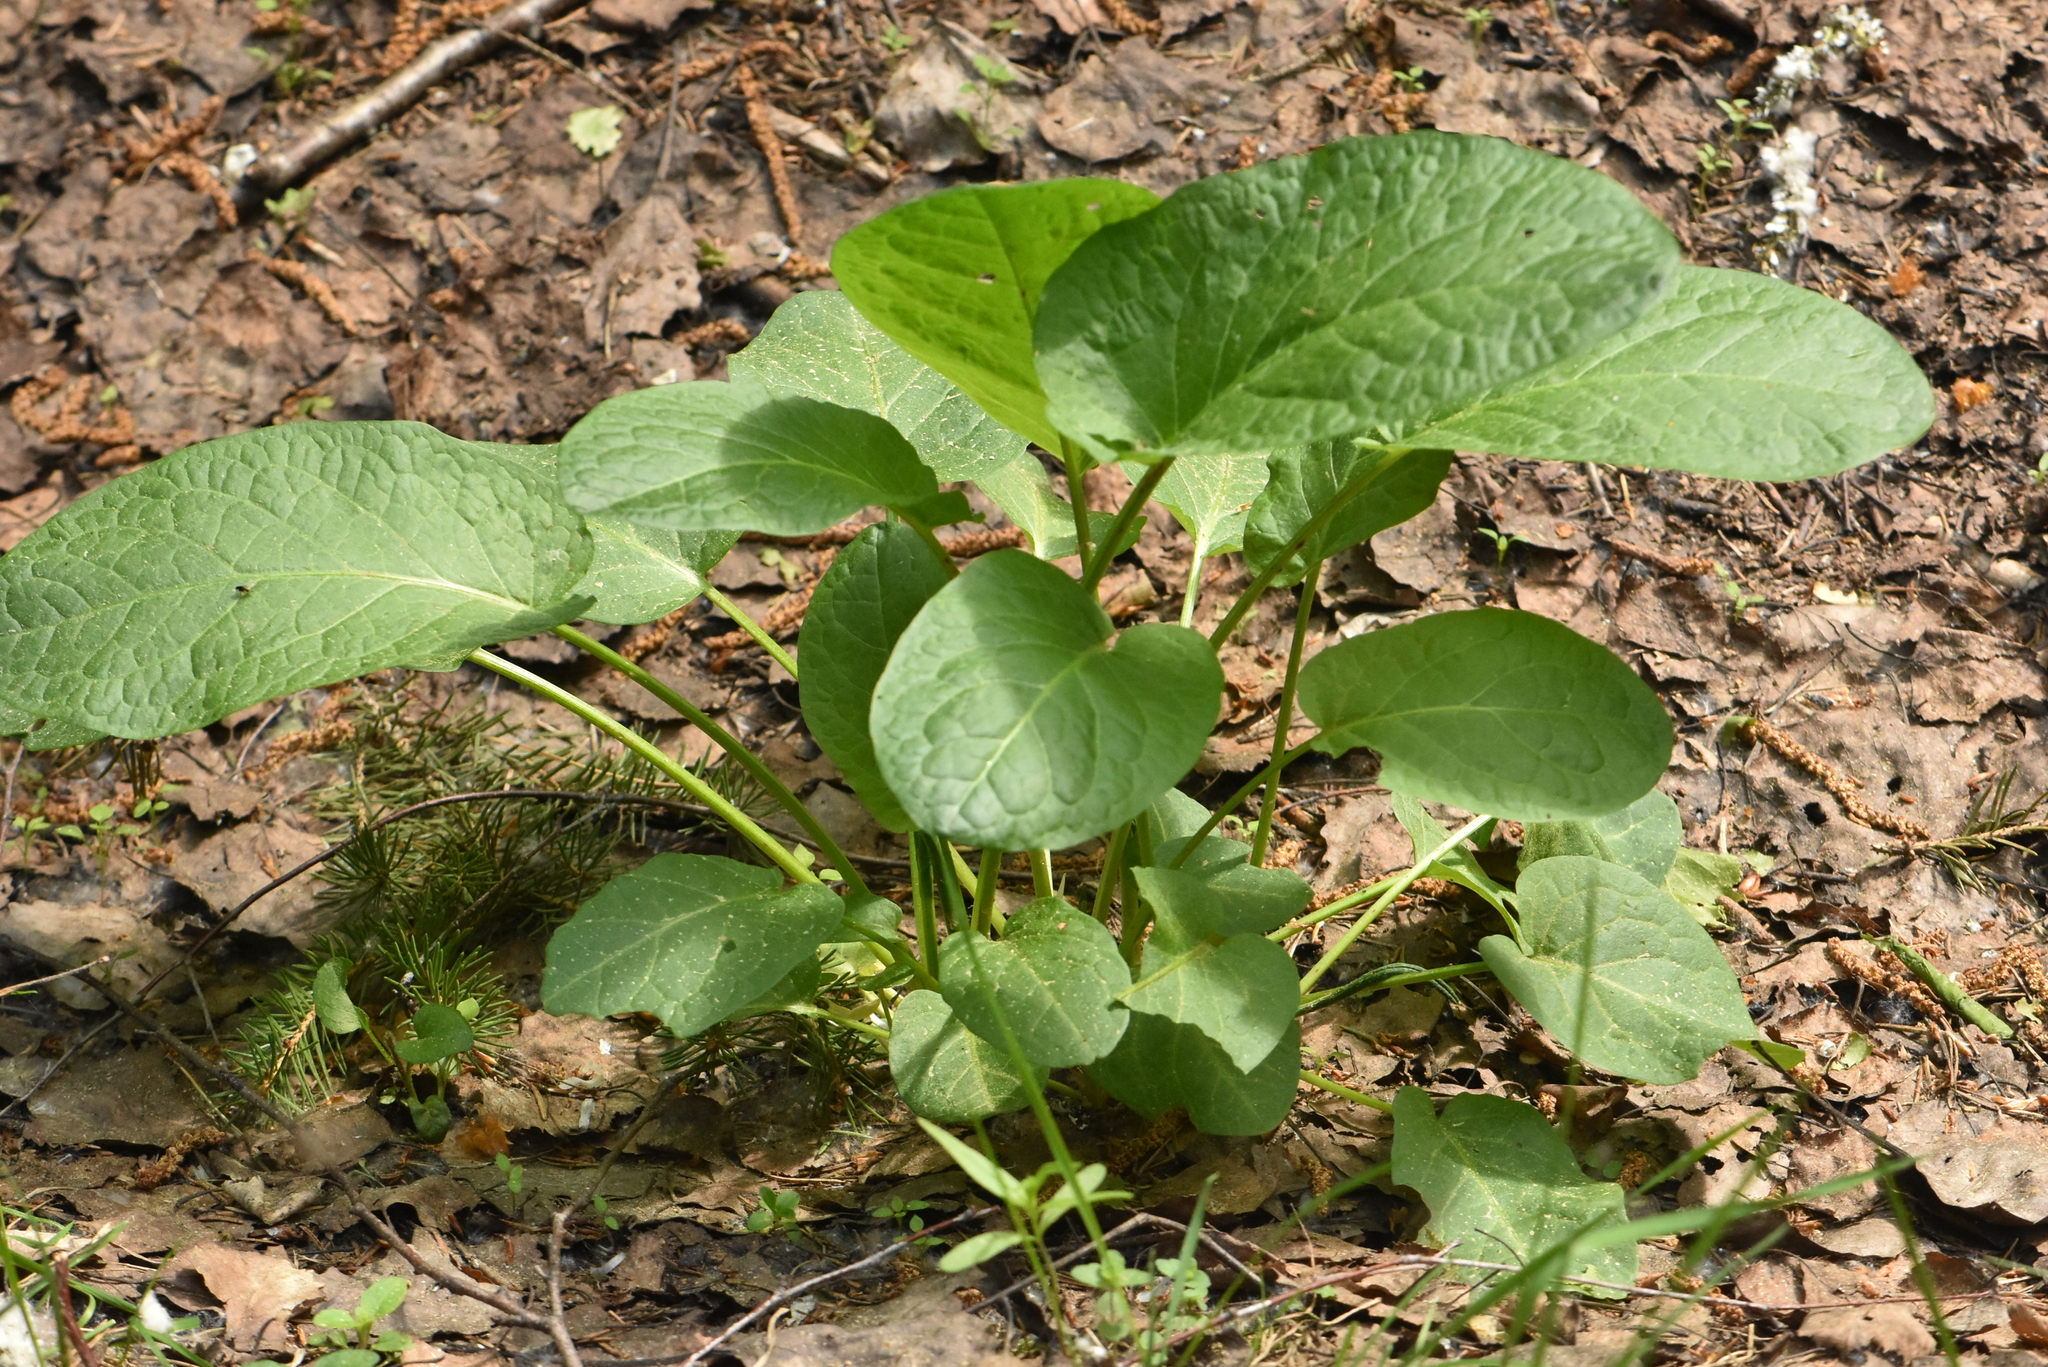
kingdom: Plantae
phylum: Tracheophyta
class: Magnoliopsida
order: Caryophyllales
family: Polygonaceae
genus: Rumex
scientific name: Rumex obtusifolius
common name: Bitter dock
